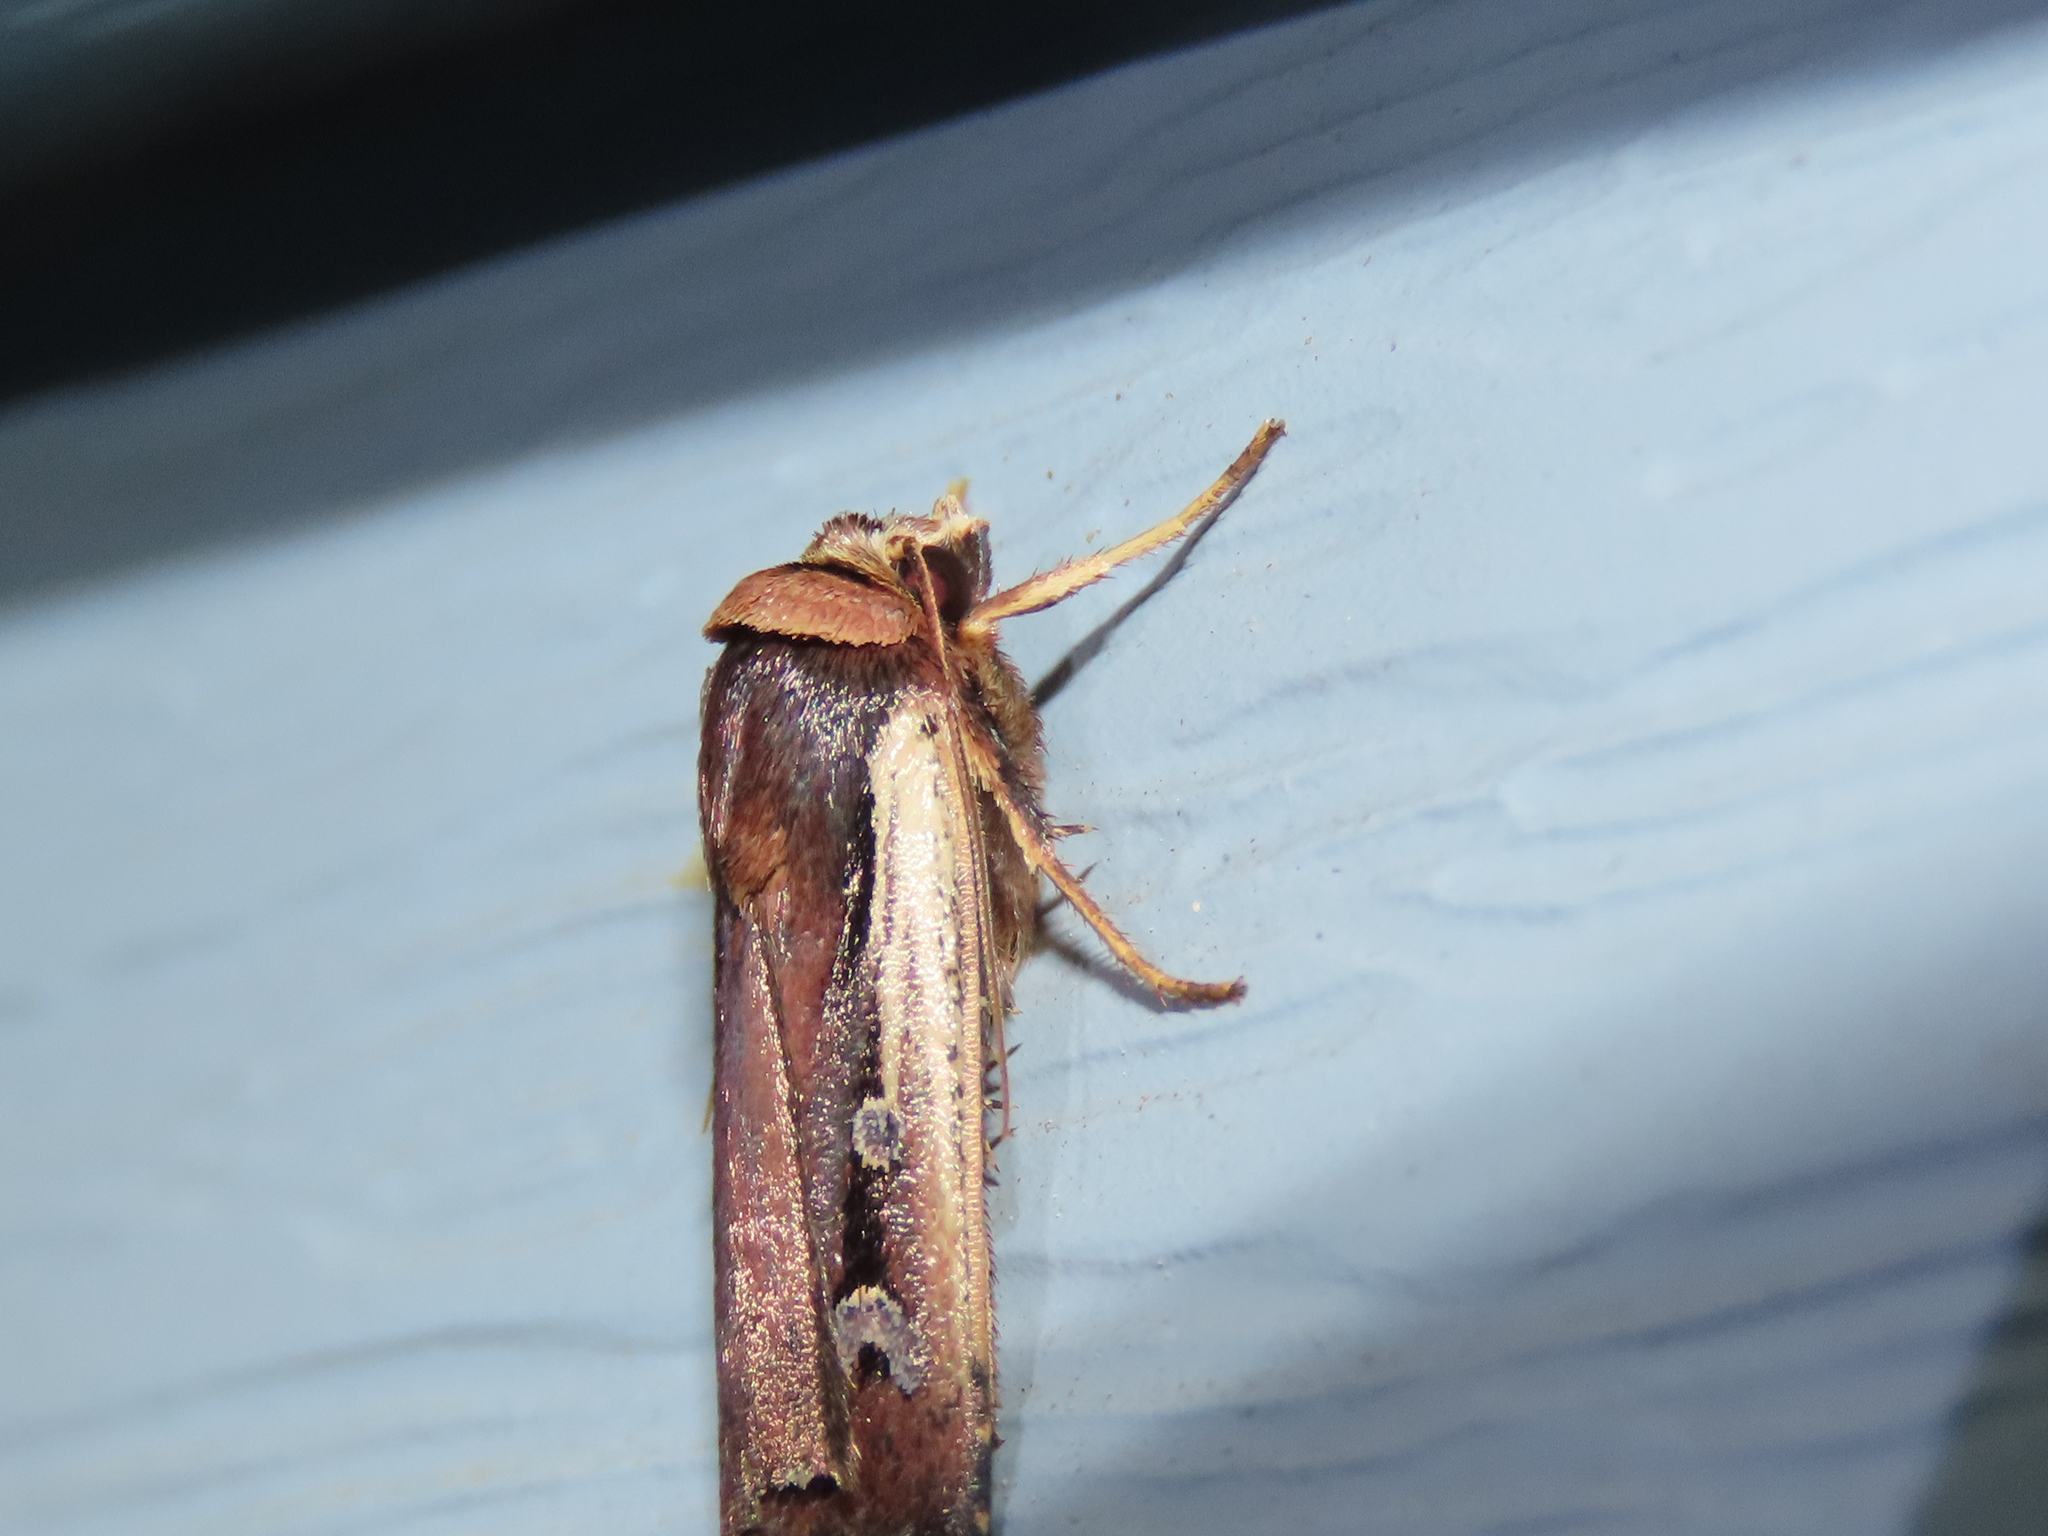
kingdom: Animalia
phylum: Arthropoda
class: Insecta
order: Lepidoptera
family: Noctuidae
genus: Ochropleura
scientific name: Ochropleura implecta
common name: Flame-shouldered dart
